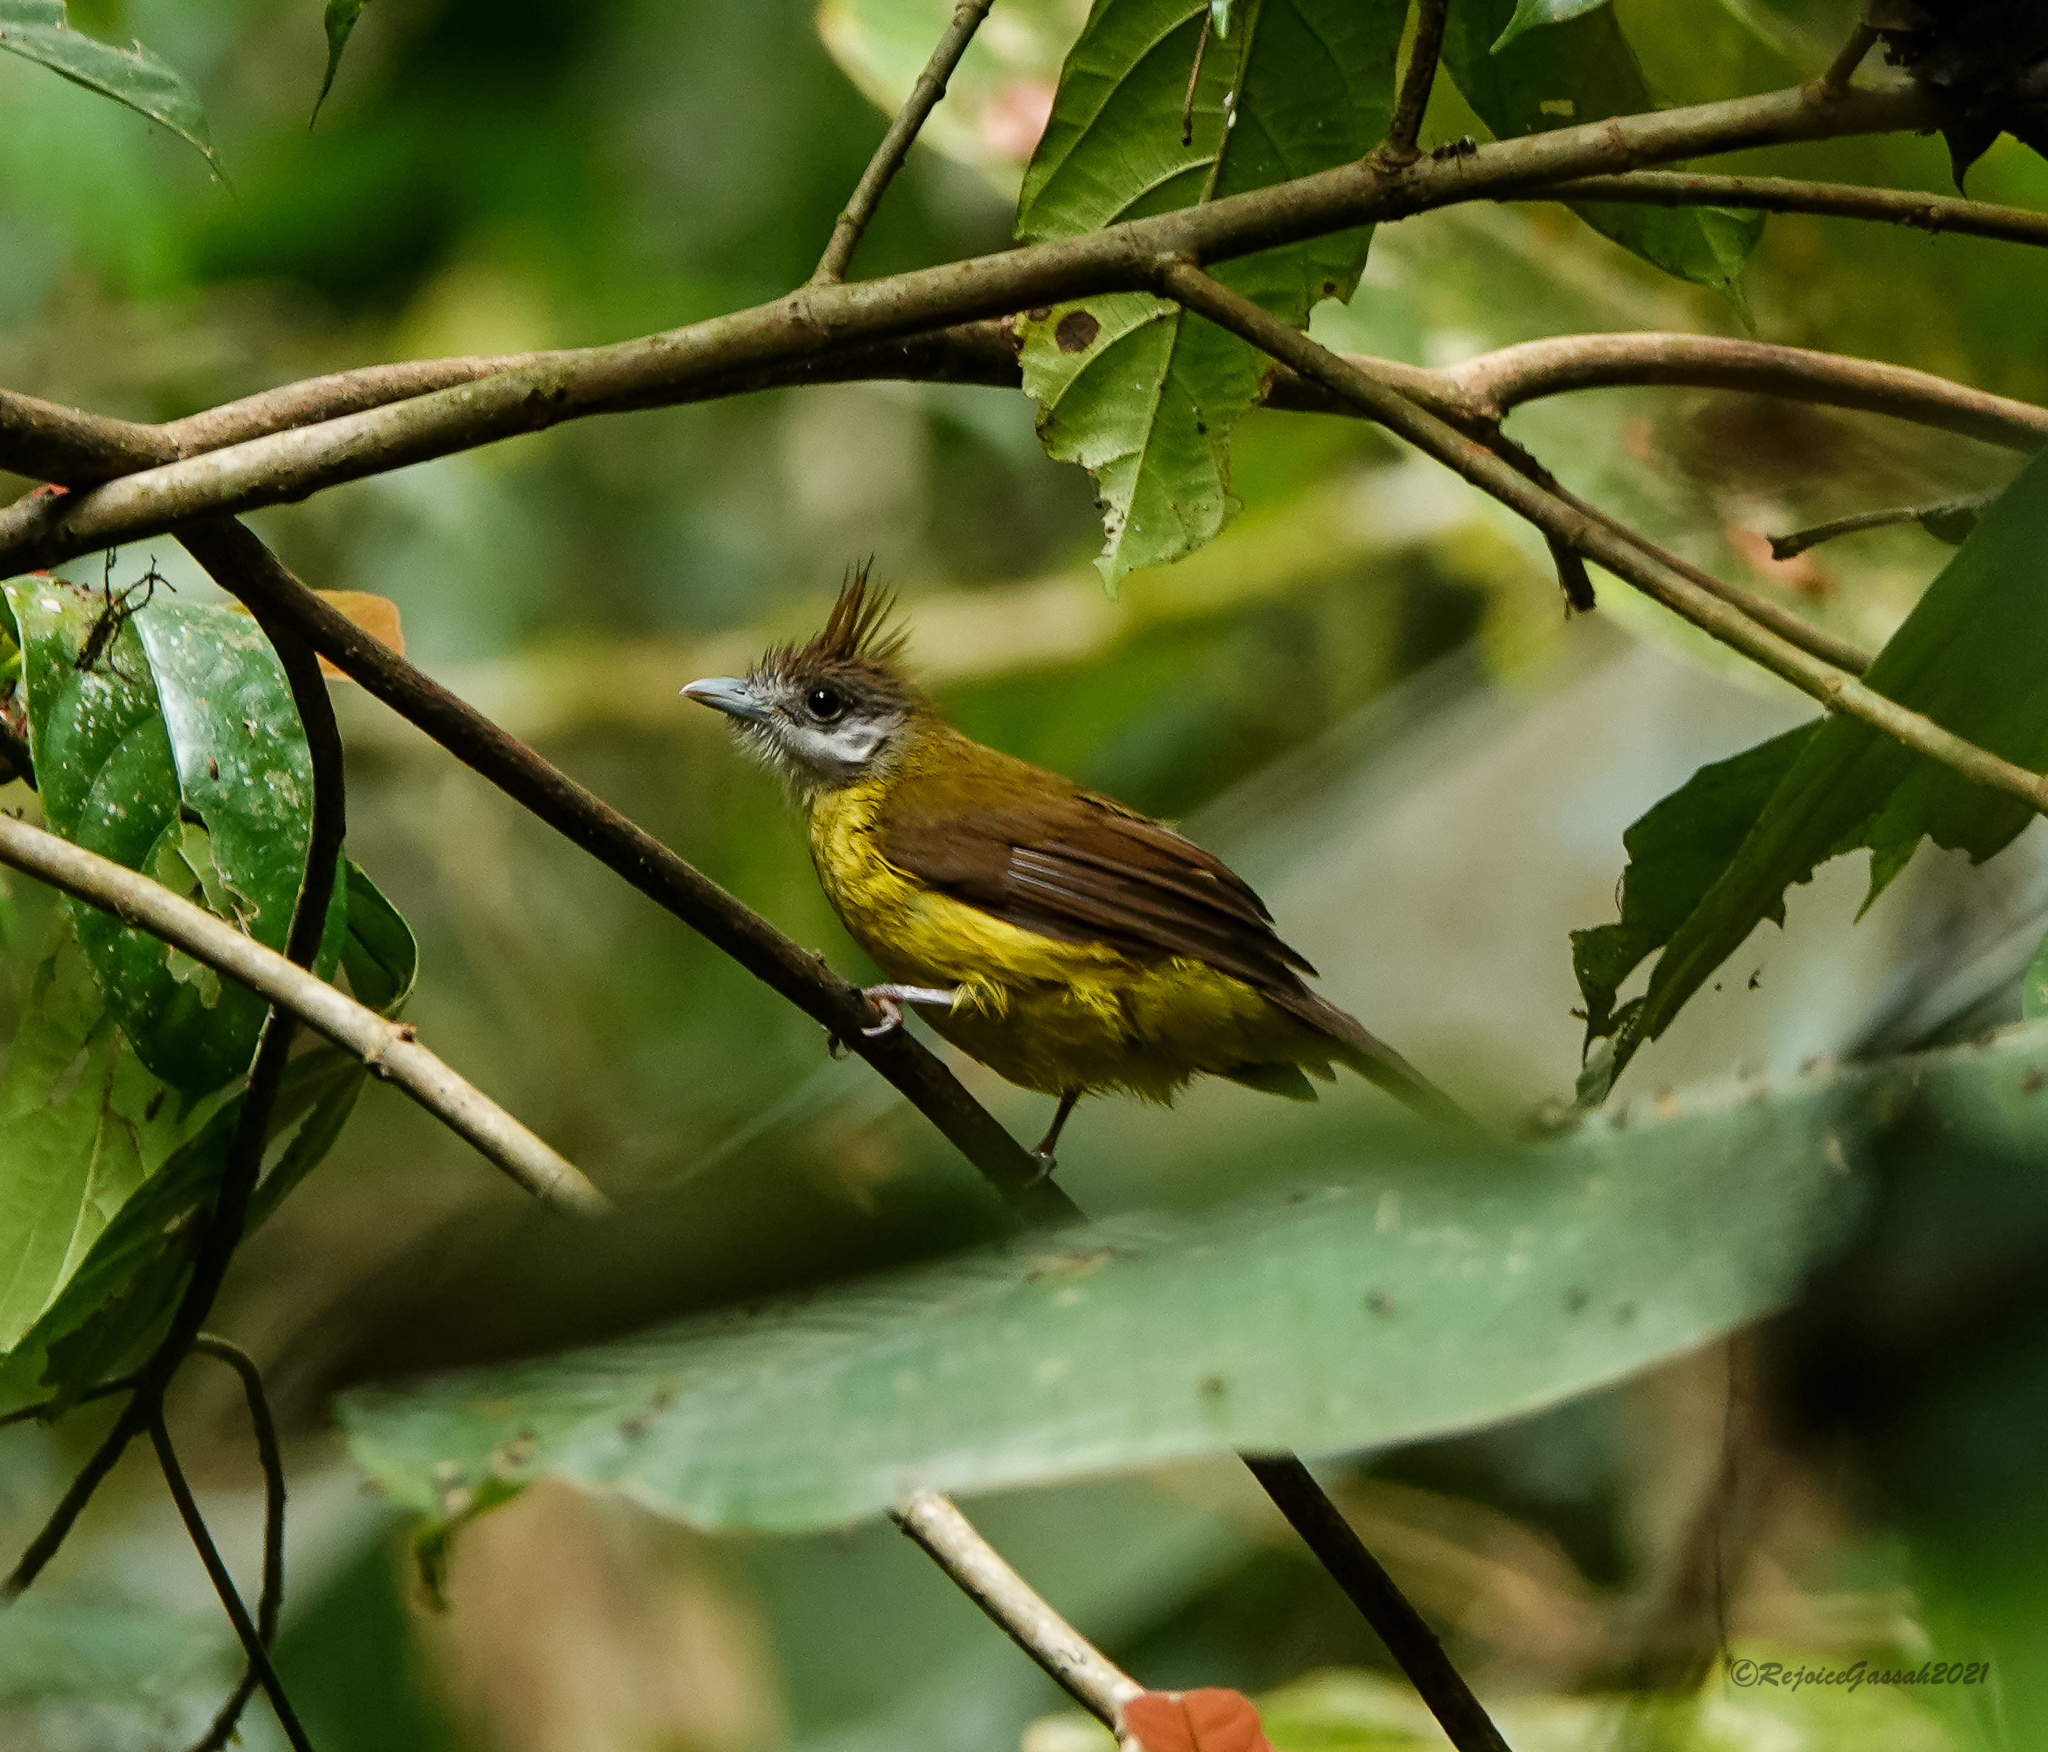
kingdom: Animalia
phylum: Chordata
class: Aves
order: Passeriformes
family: Pycnonotidae
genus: Alophoixus
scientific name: Alophoixus flaveolus
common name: White-throated bulbul
